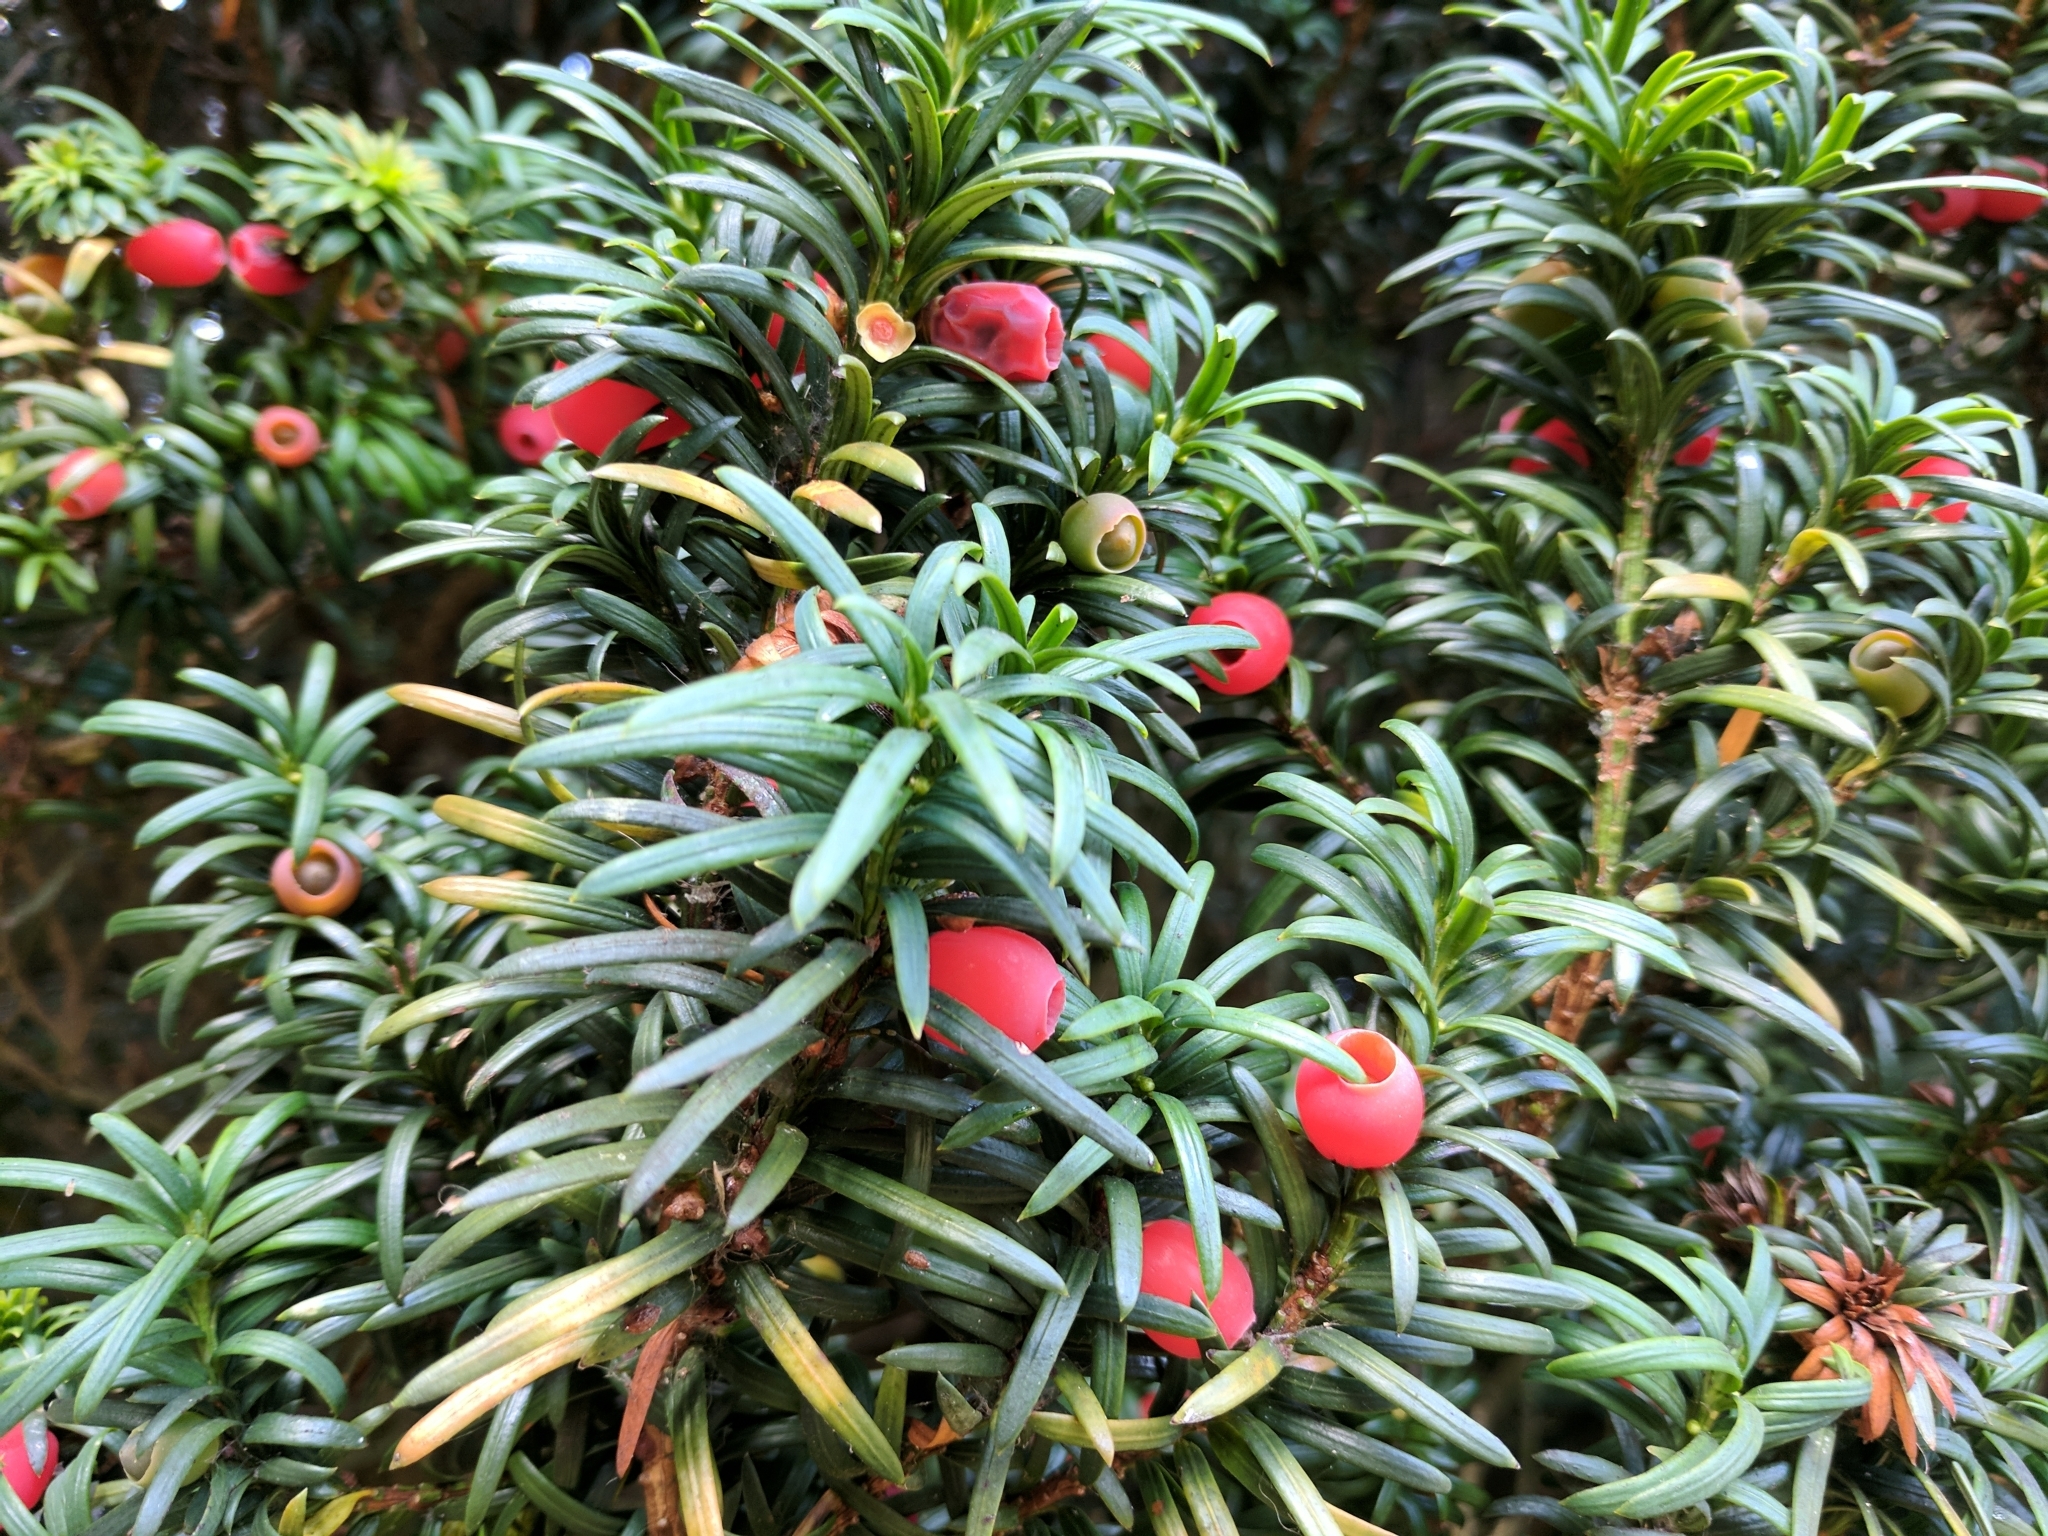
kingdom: Plantae
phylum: Tracheophyta
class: Pinopsida
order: Pinales
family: Taxaceae
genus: Taxus
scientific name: Taxus baccata
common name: Yew
